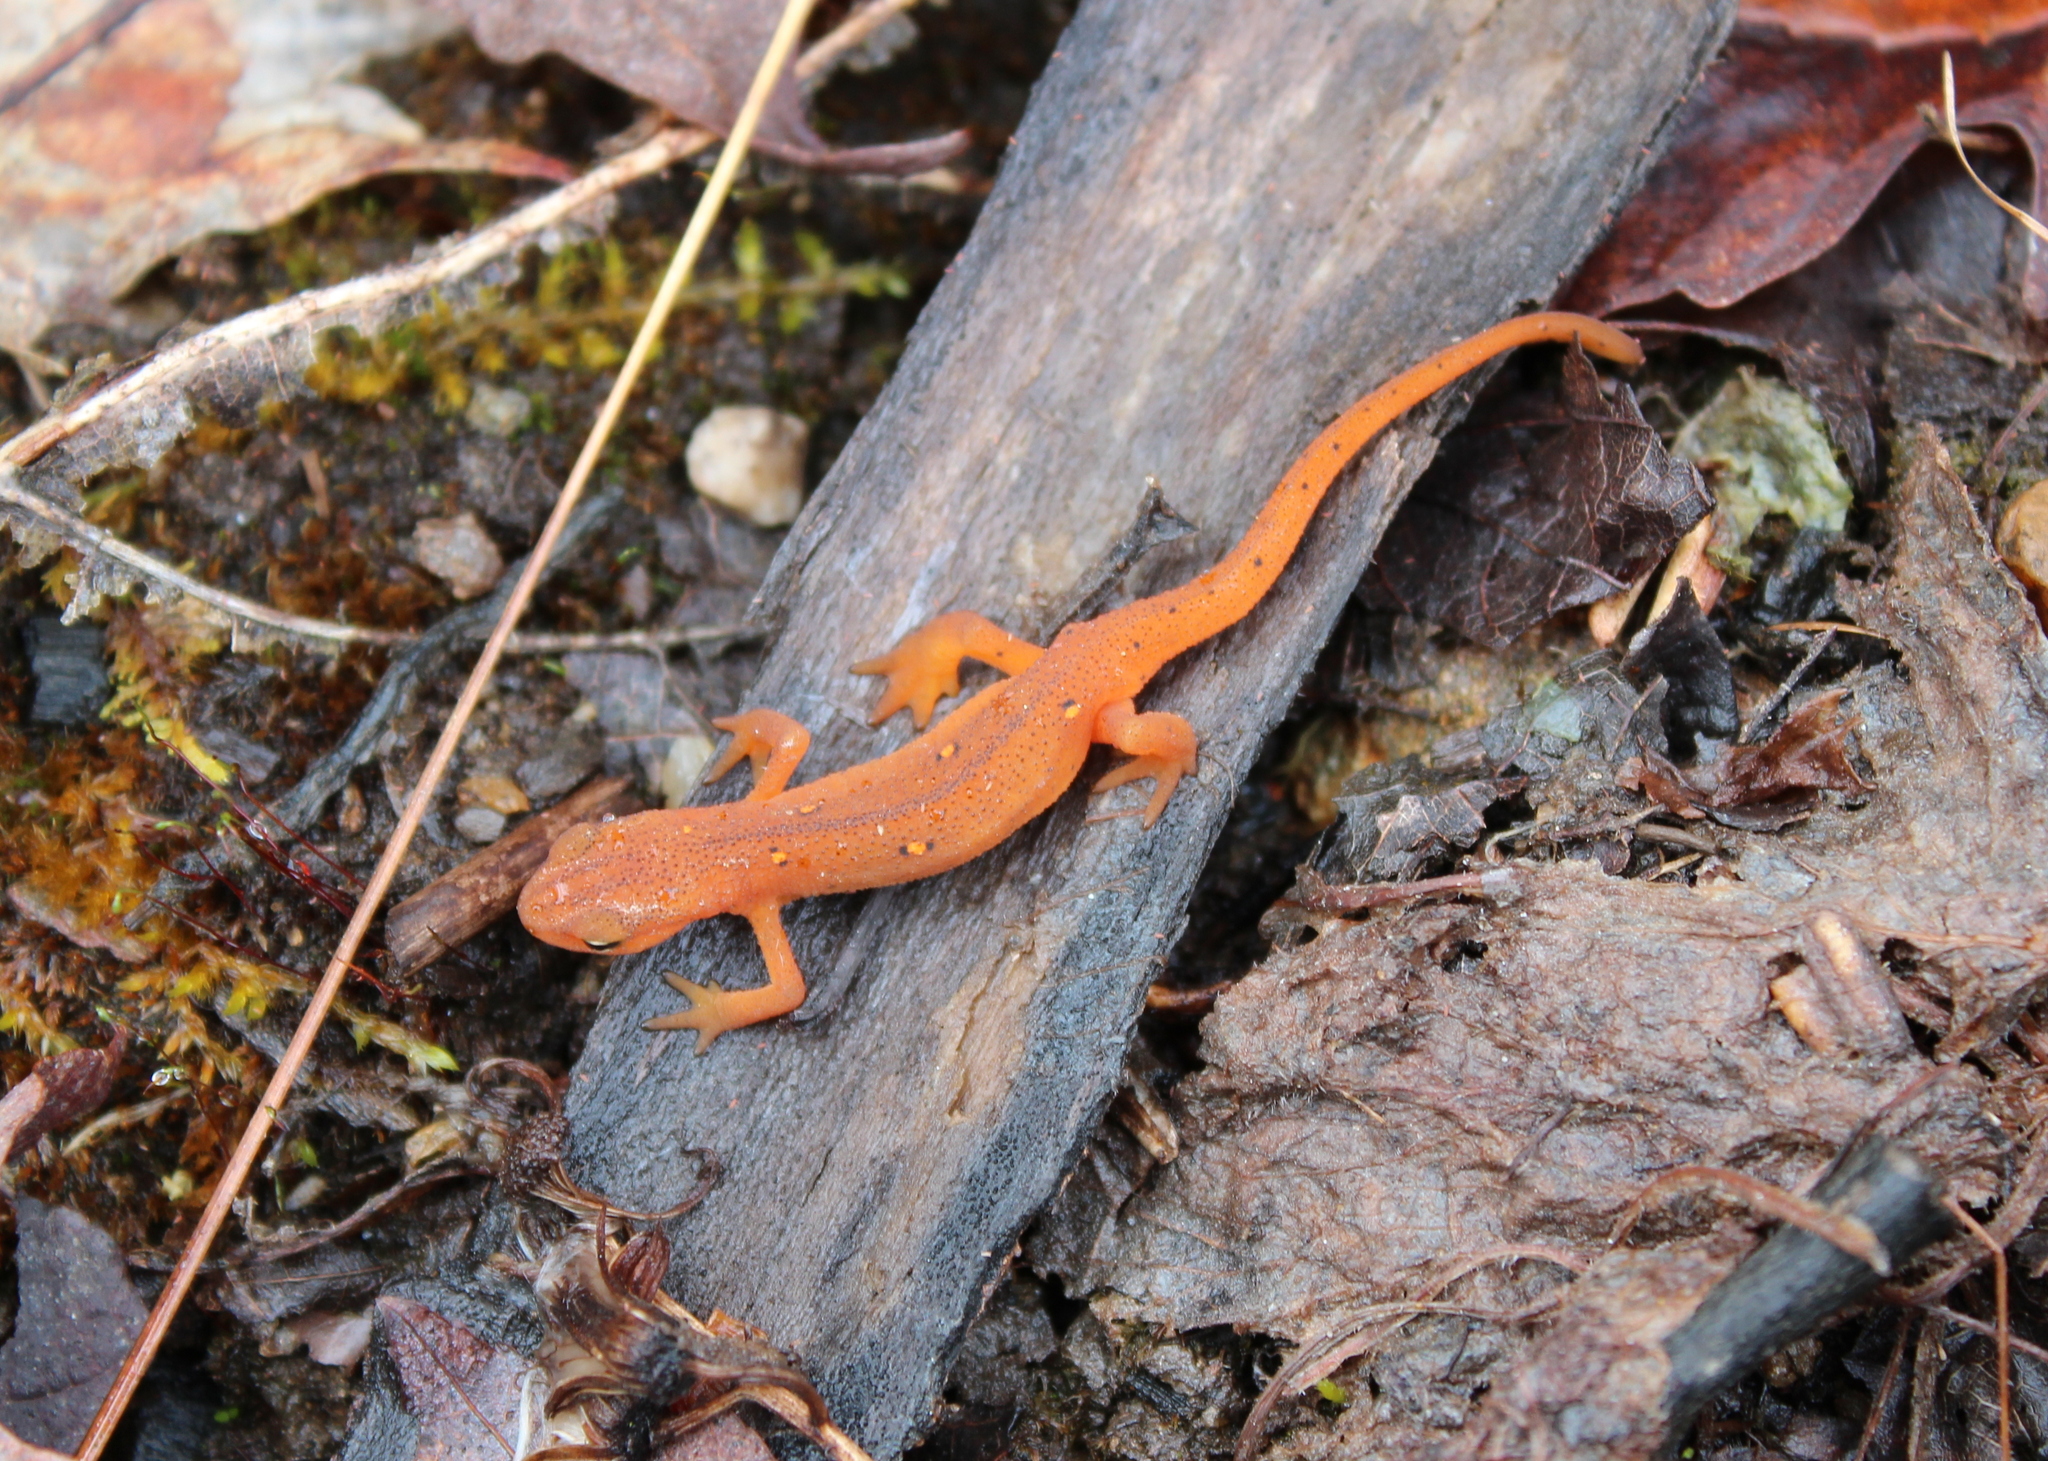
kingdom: Animalia
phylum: Chordata
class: Amphibia
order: Caudata
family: Salamandridae
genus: Notophthalmus
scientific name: Notophthalmus viridescens
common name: Eastern newt
